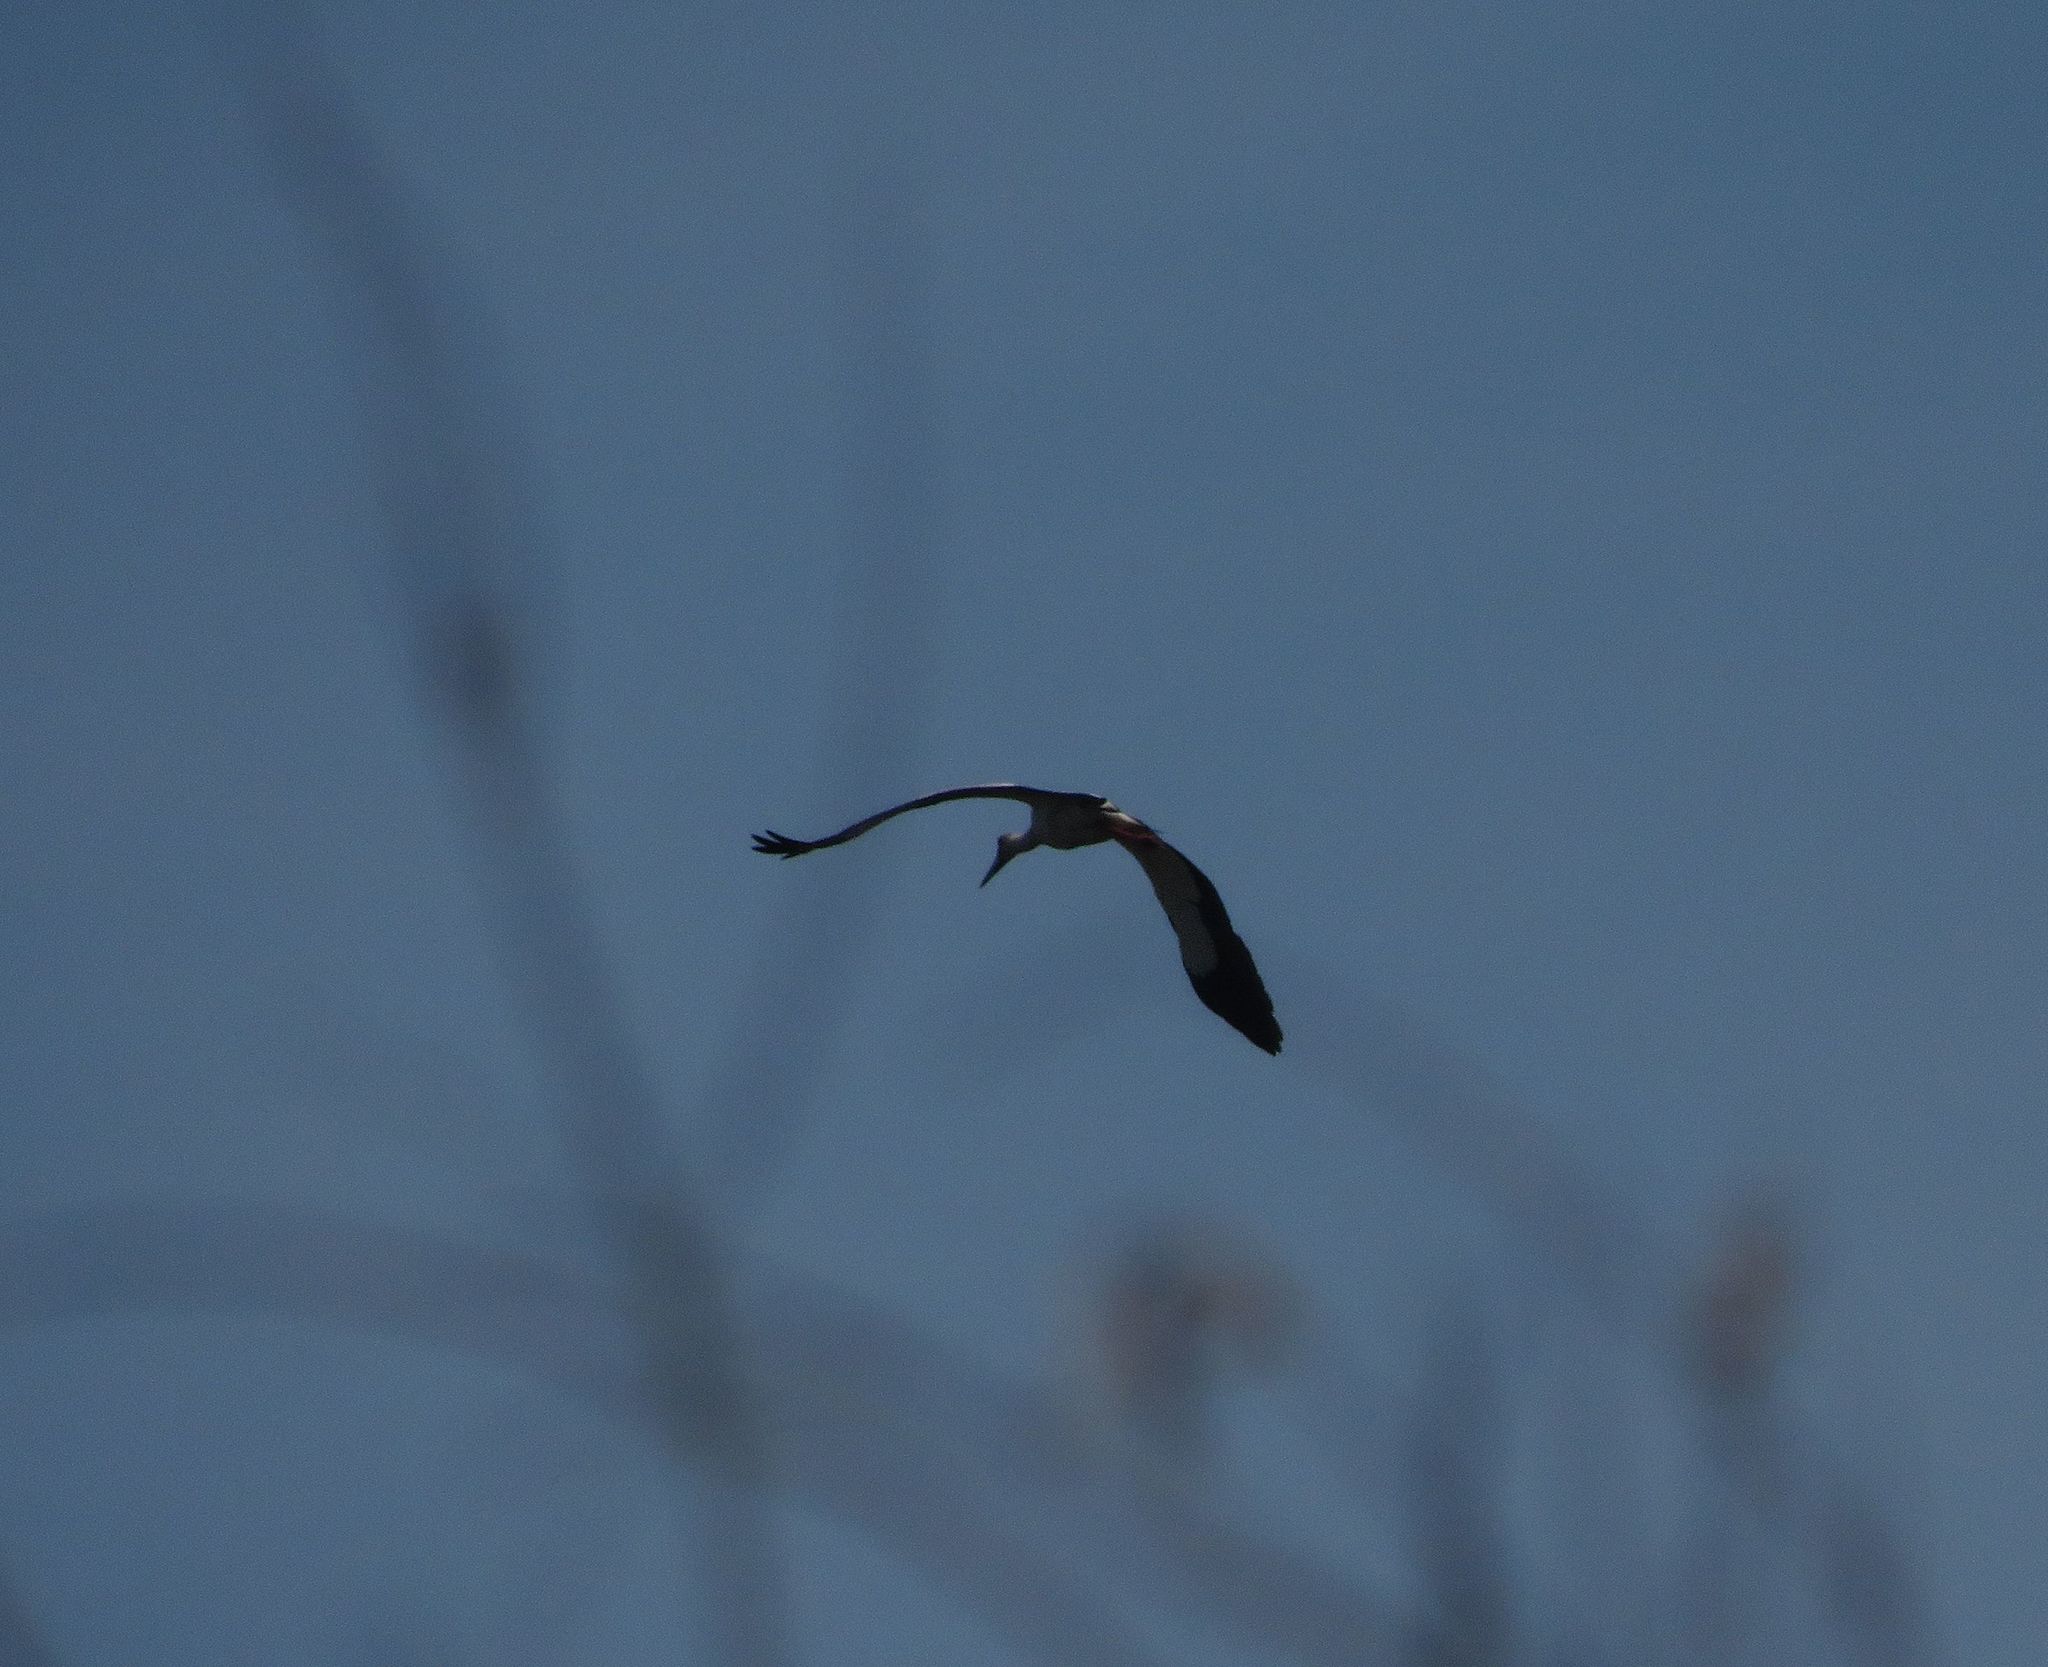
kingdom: Animalia
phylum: Chordata
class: Aves
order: Ciconiiformes
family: Ciconiidae
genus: Ciconia
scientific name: Ciconia maguari
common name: Maguari stork
